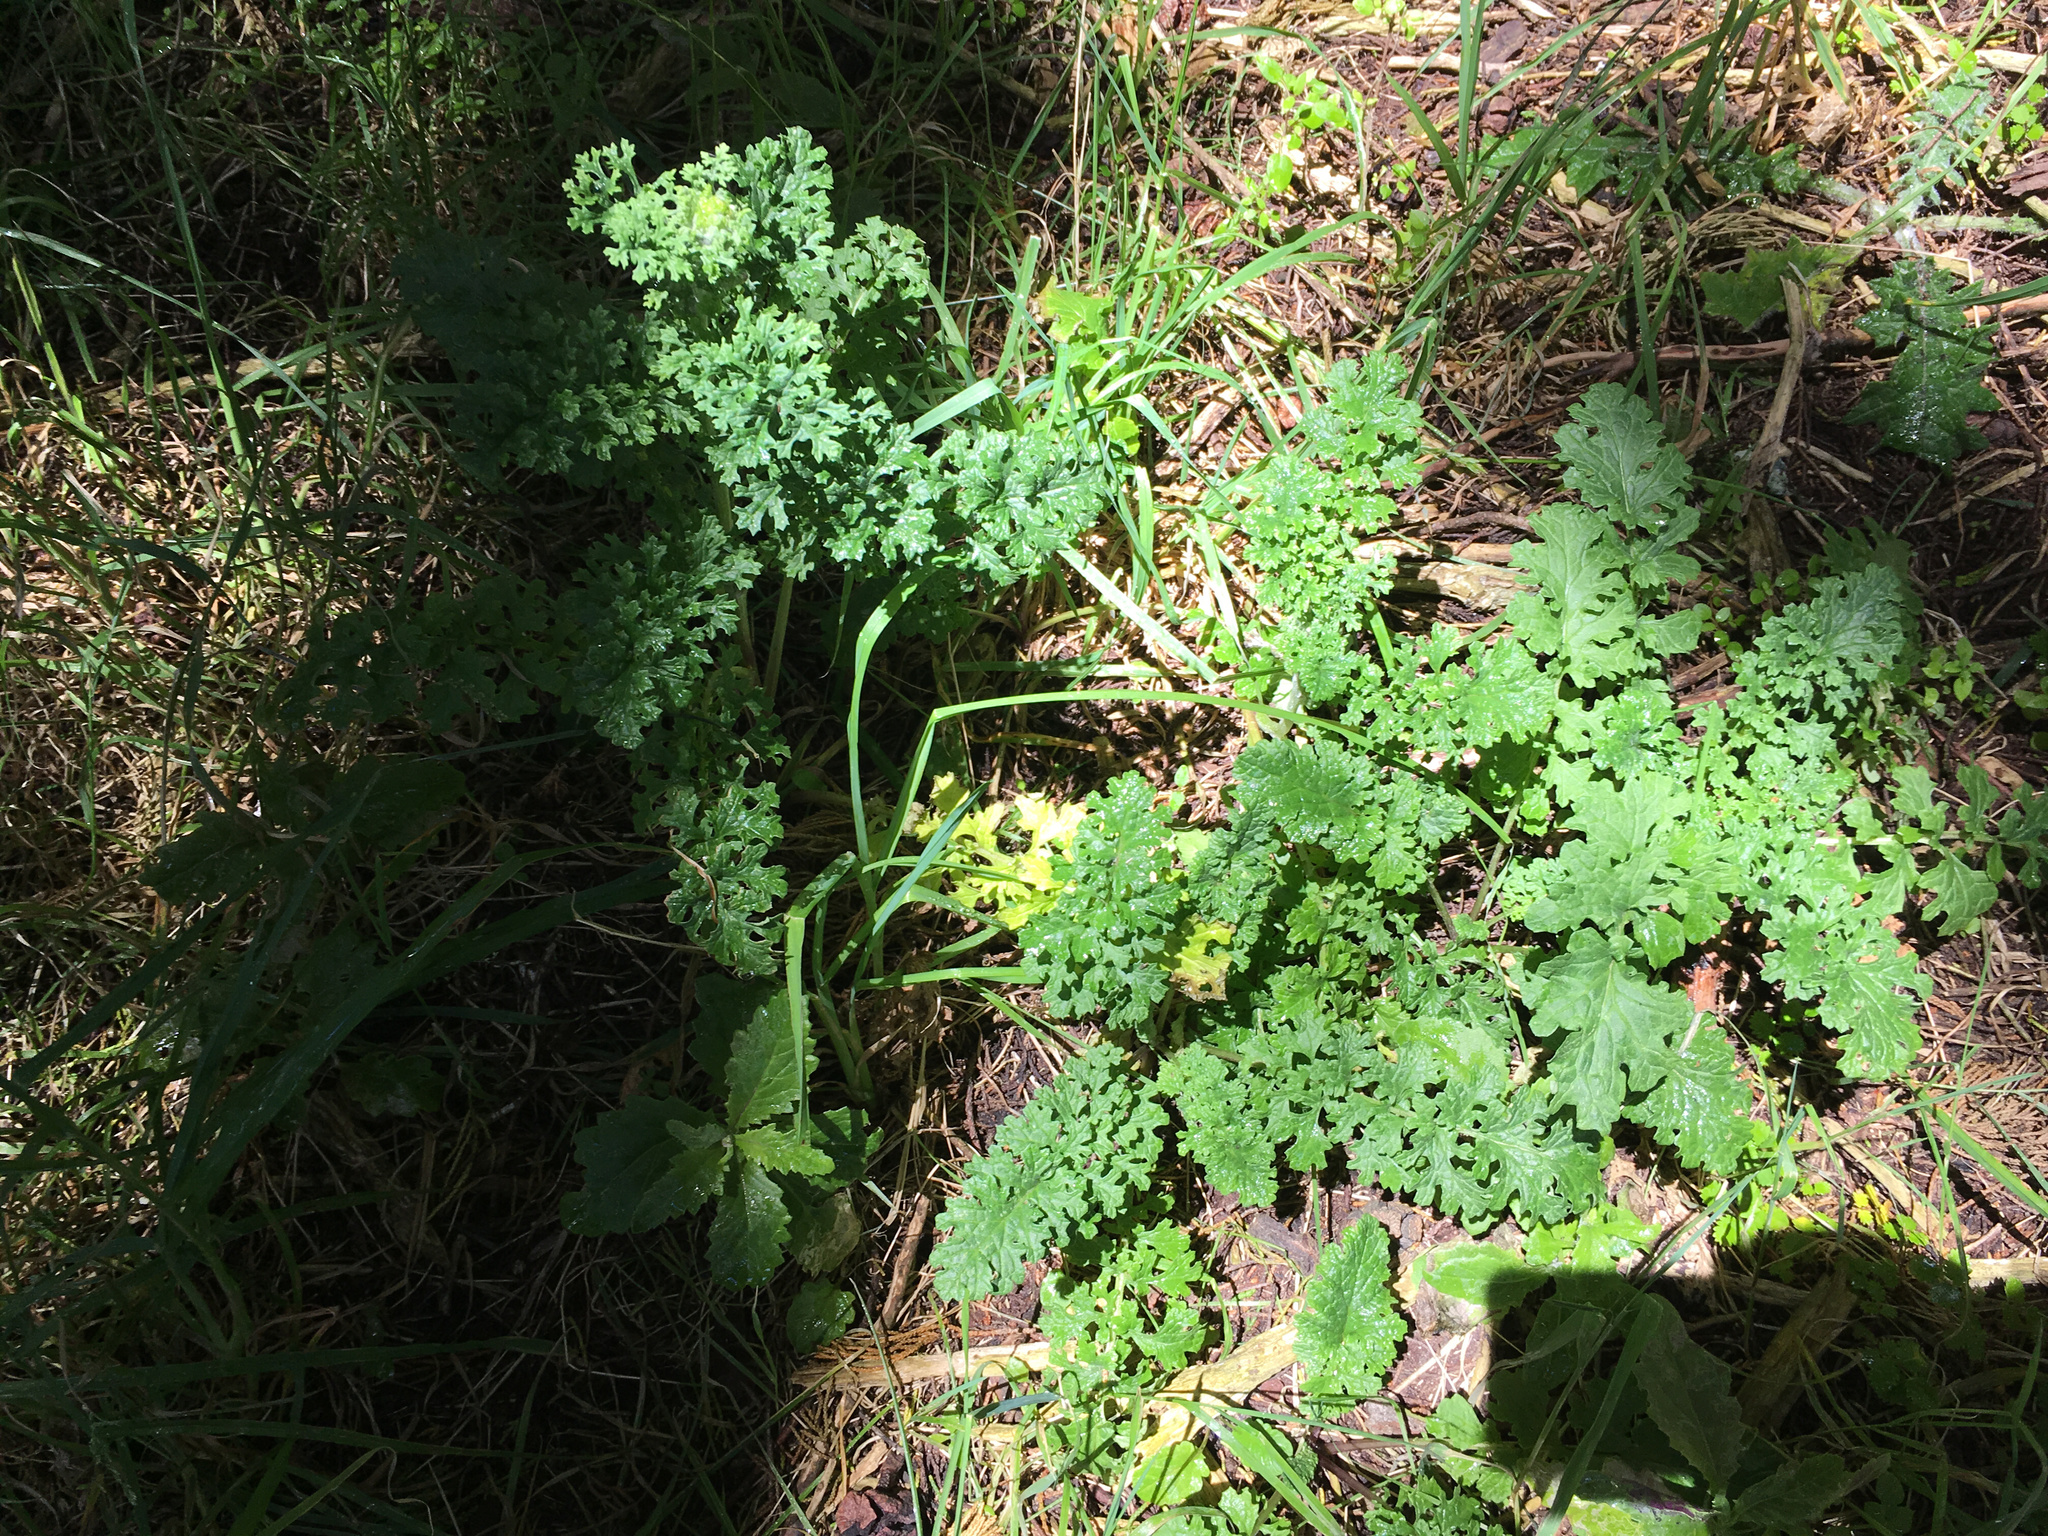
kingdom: Plantae
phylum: Tracheophyta
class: Magnoliopsida
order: Asterales
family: Asteraceae
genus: Jacobaea
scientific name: Jacobaea vulgaris
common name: Stinking willie
